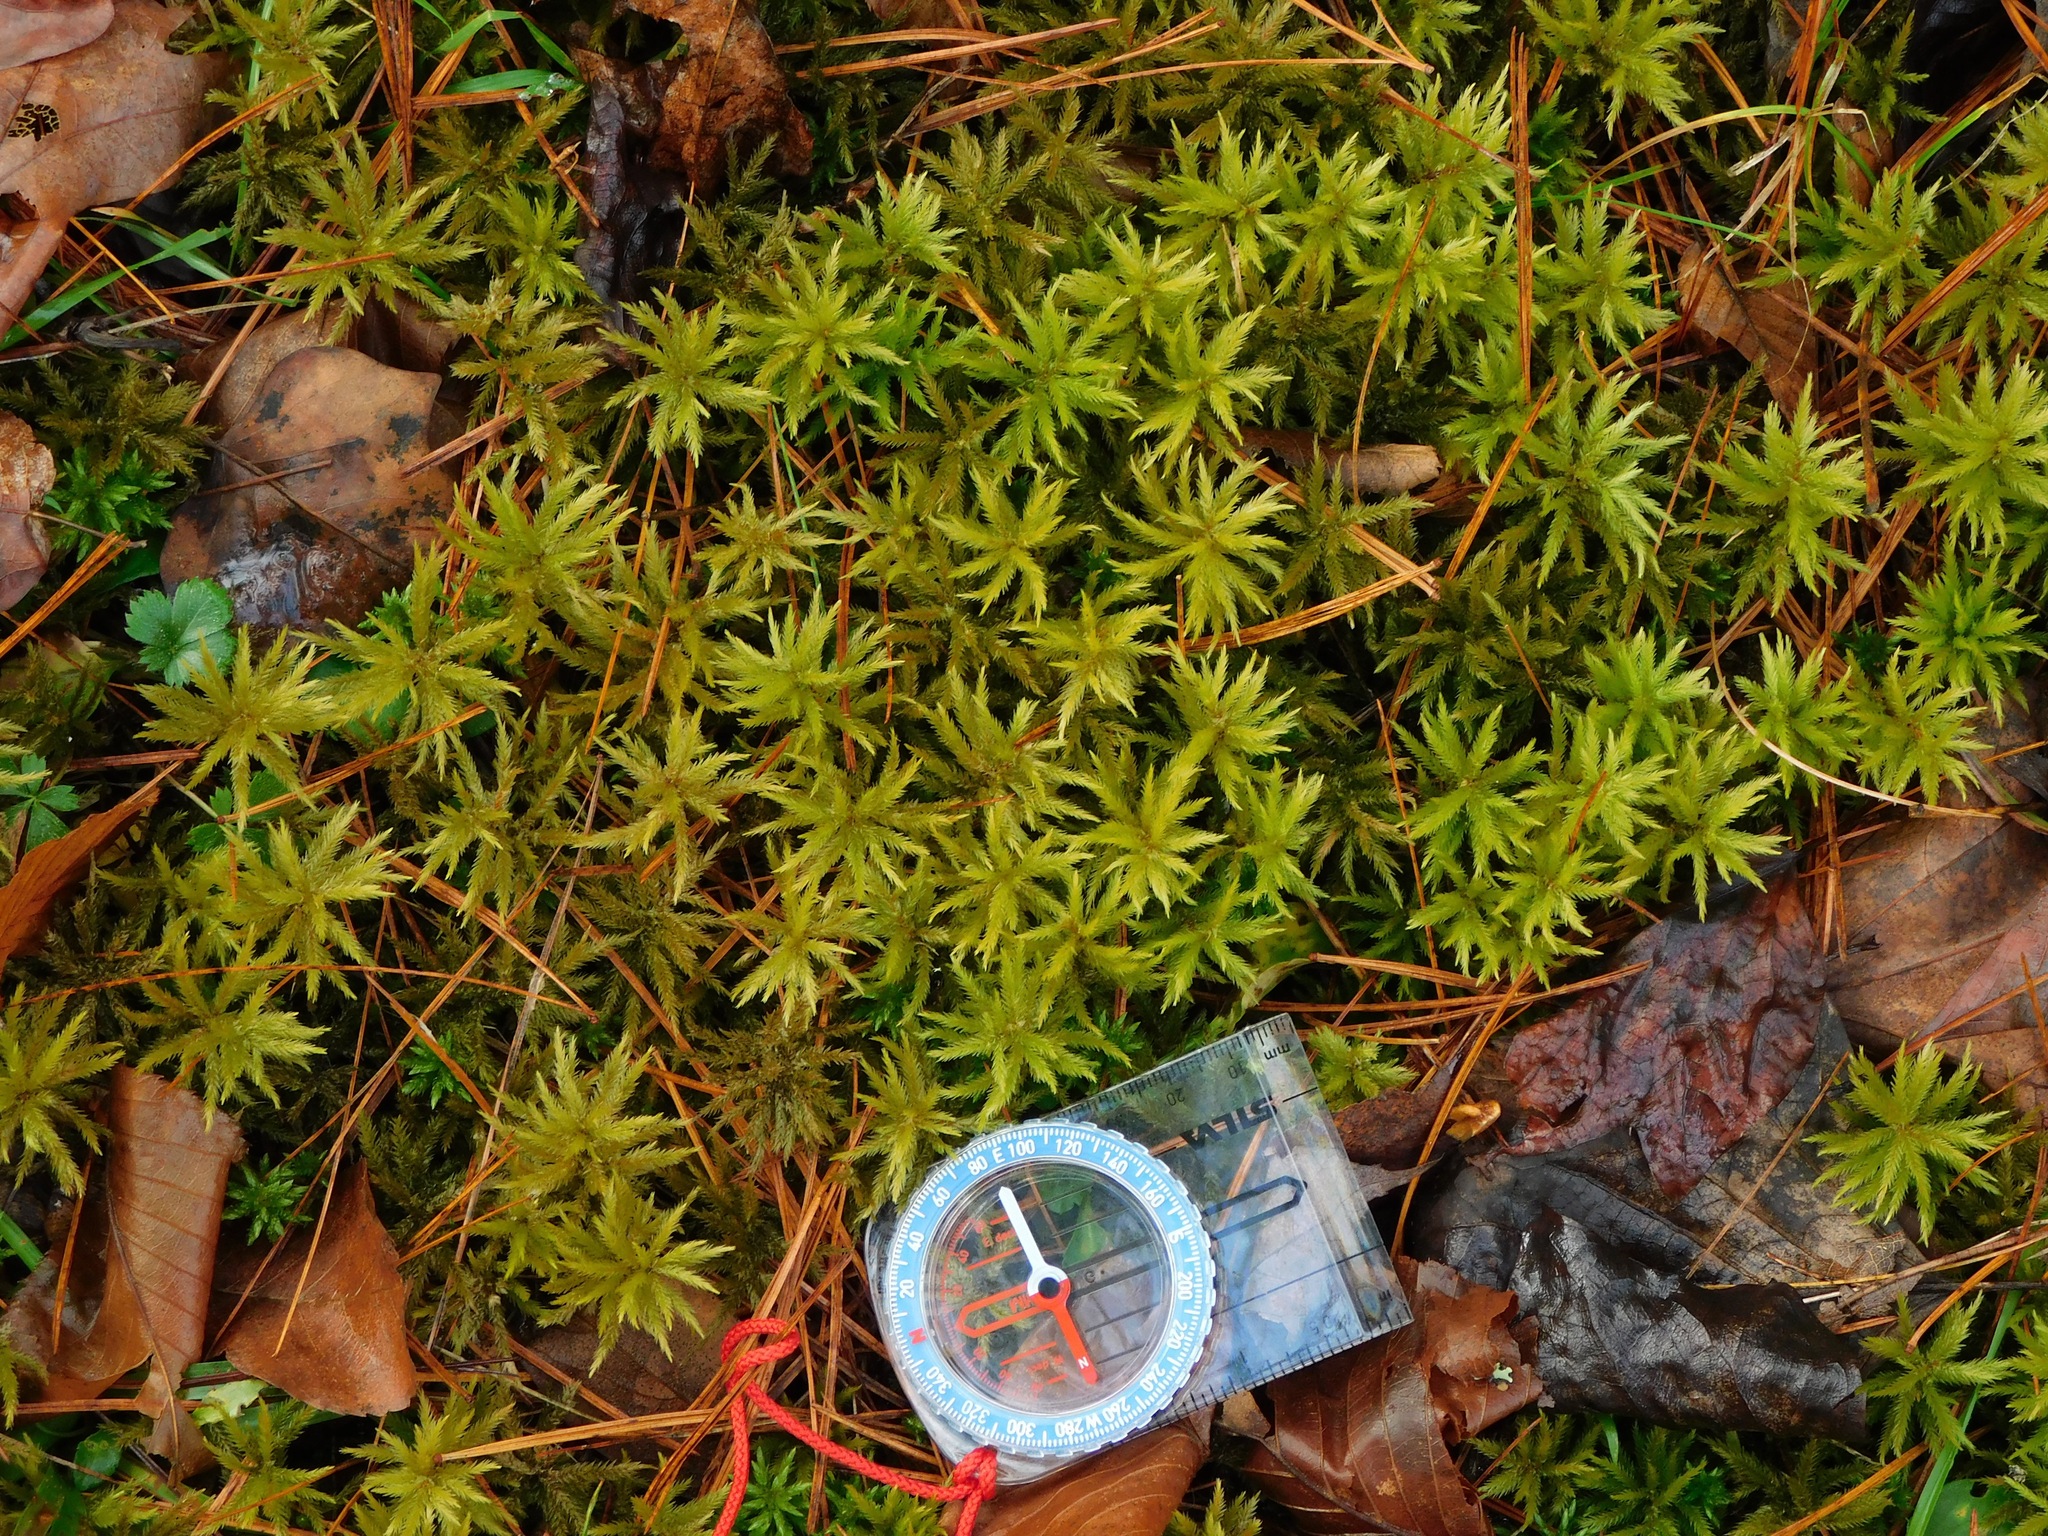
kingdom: Plantae
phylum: Bryophyta
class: Bryopsida
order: Hypnales
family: Climaciaceae
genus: Climacium
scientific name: Climacium americanum
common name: American tree moss
